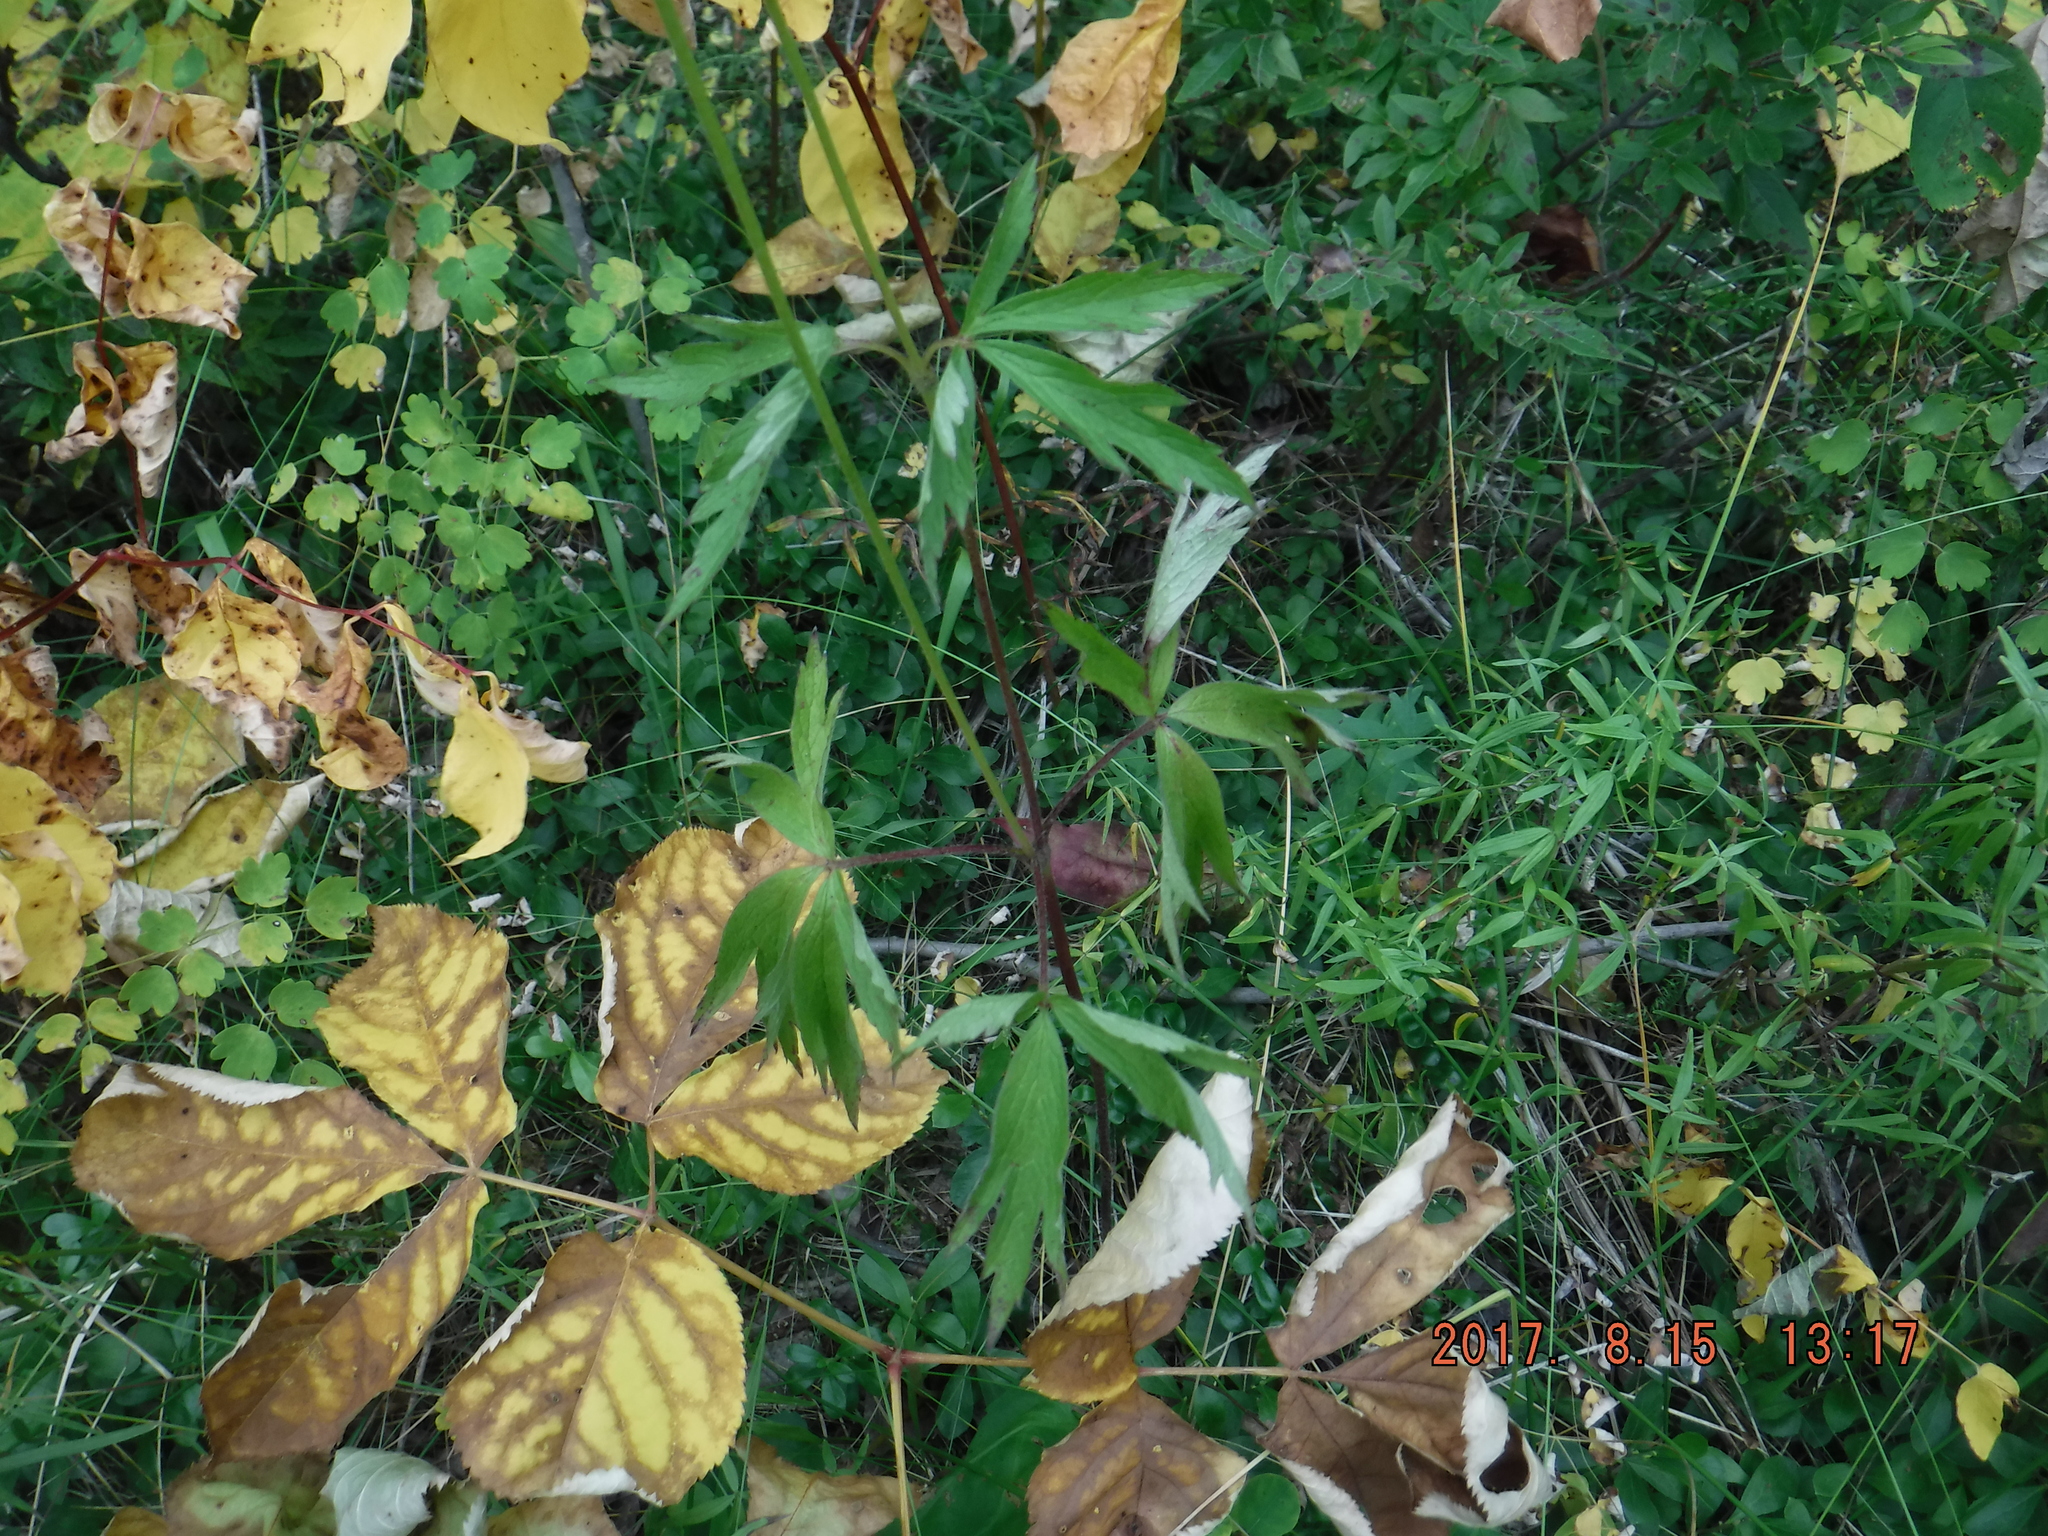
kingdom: Plantae
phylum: Tracheophyta
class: Magnoliopsida
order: Ranunculales
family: Ranunculaceae
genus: Anemone
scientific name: Anemone virginiana
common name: Tall anemone
